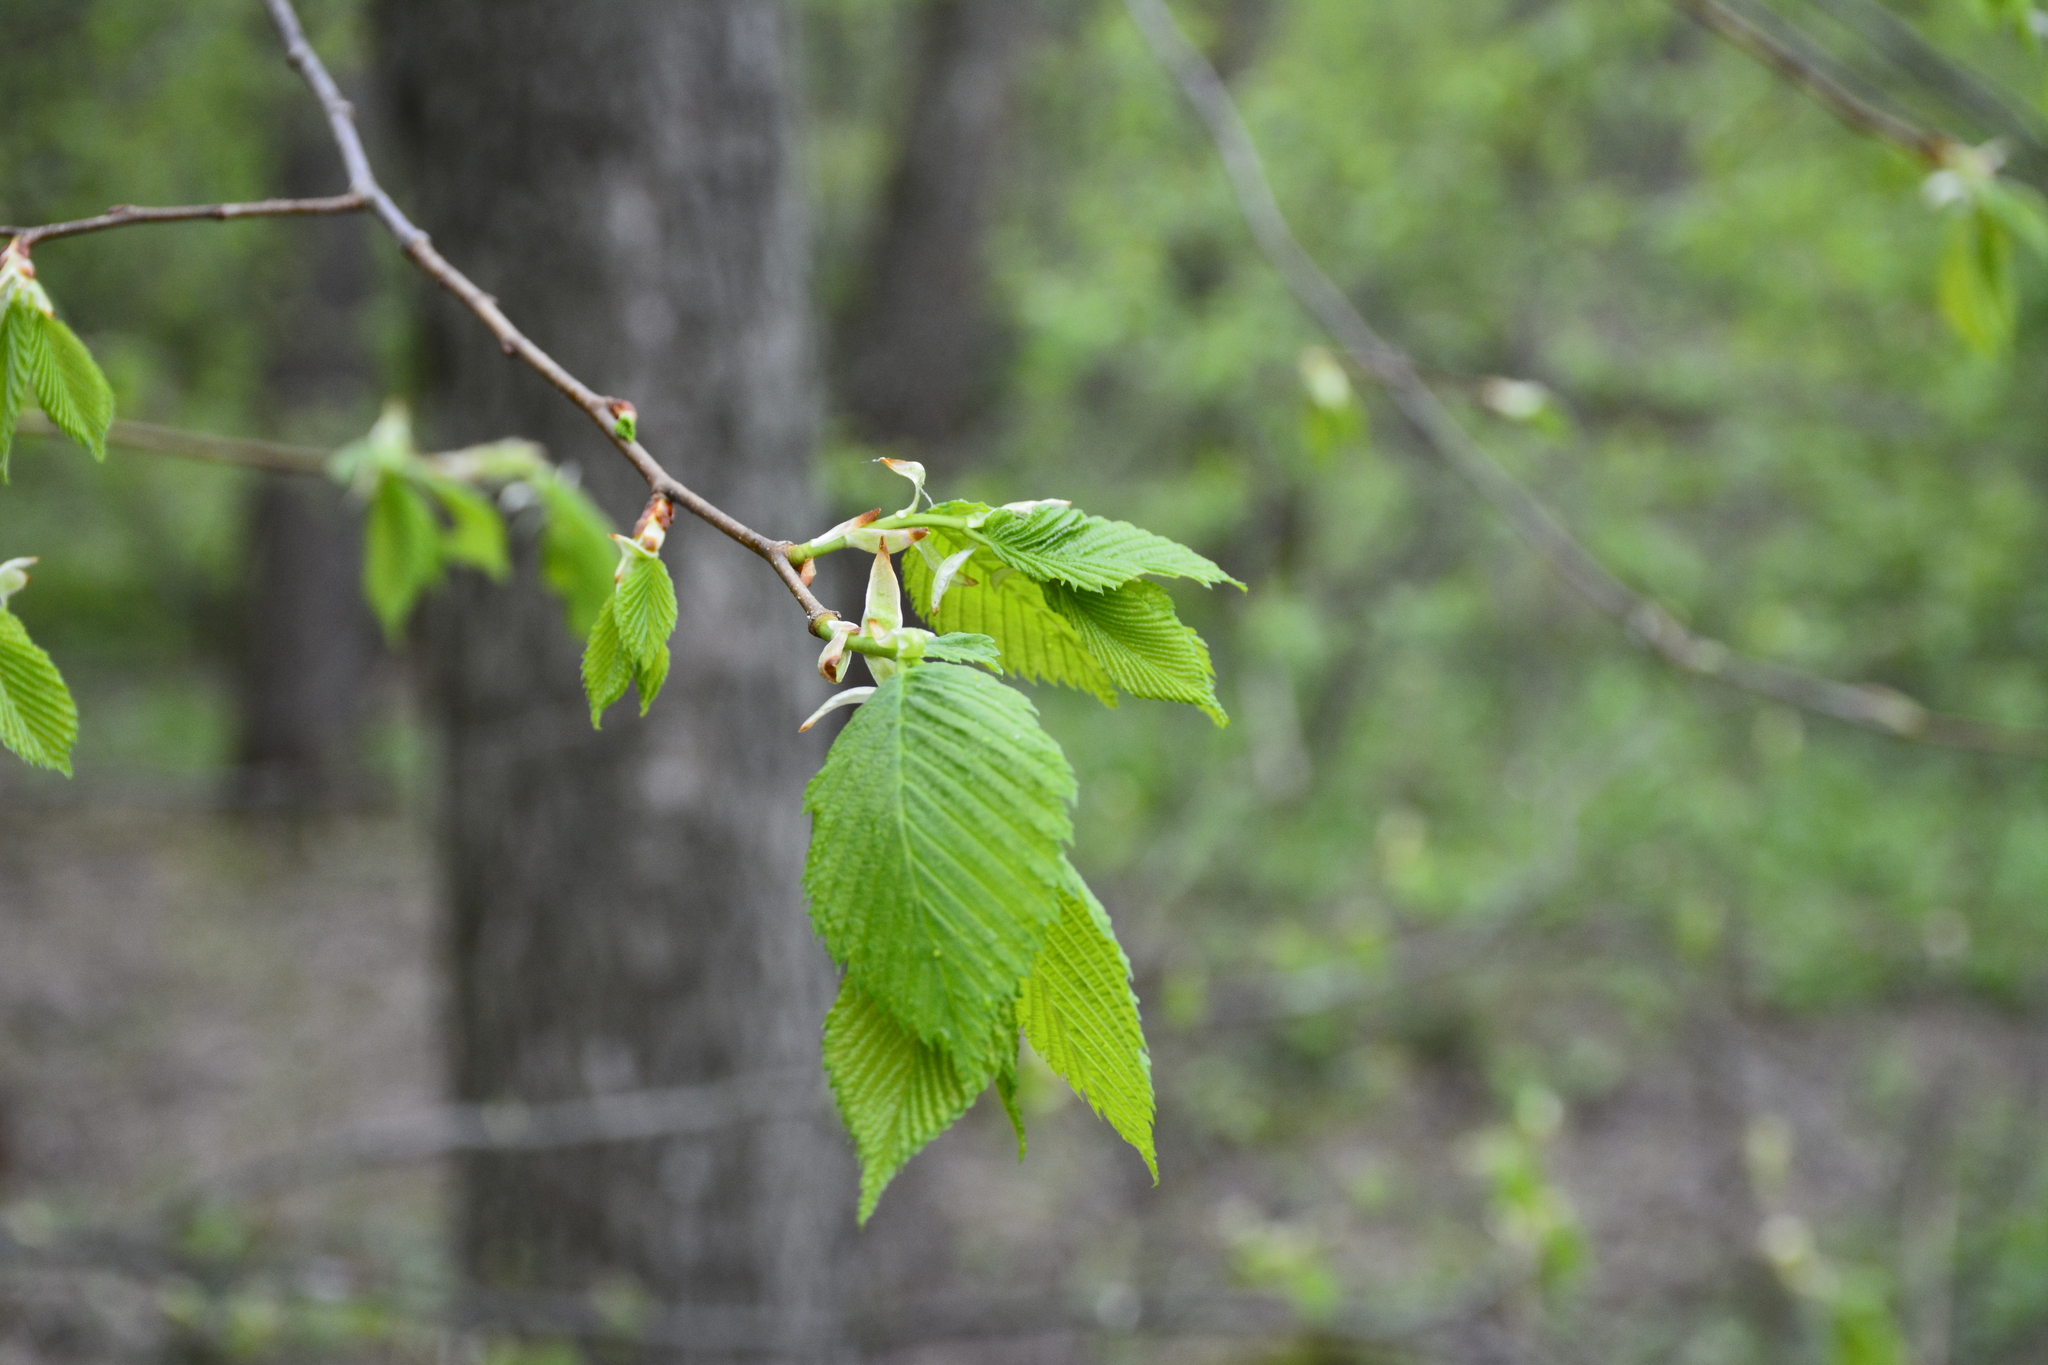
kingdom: Plantae
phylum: Tracheophyta
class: Magnoliopsida
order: Rosales
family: Ulmaceae
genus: Ulmus
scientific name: Ulmus laevis
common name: European white-elm
